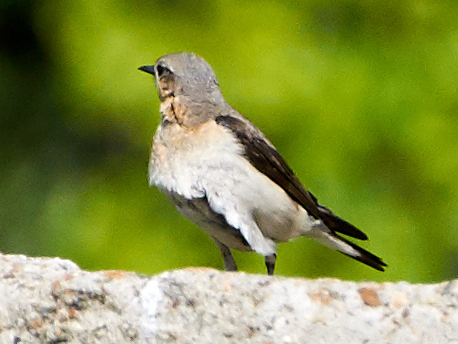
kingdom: Animalia
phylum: Chordata
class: Aves
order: Passeriformes
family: Muscicapidae
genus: Oenanthe
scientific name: Oenanthe oenanthe
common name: Northern wheatear
